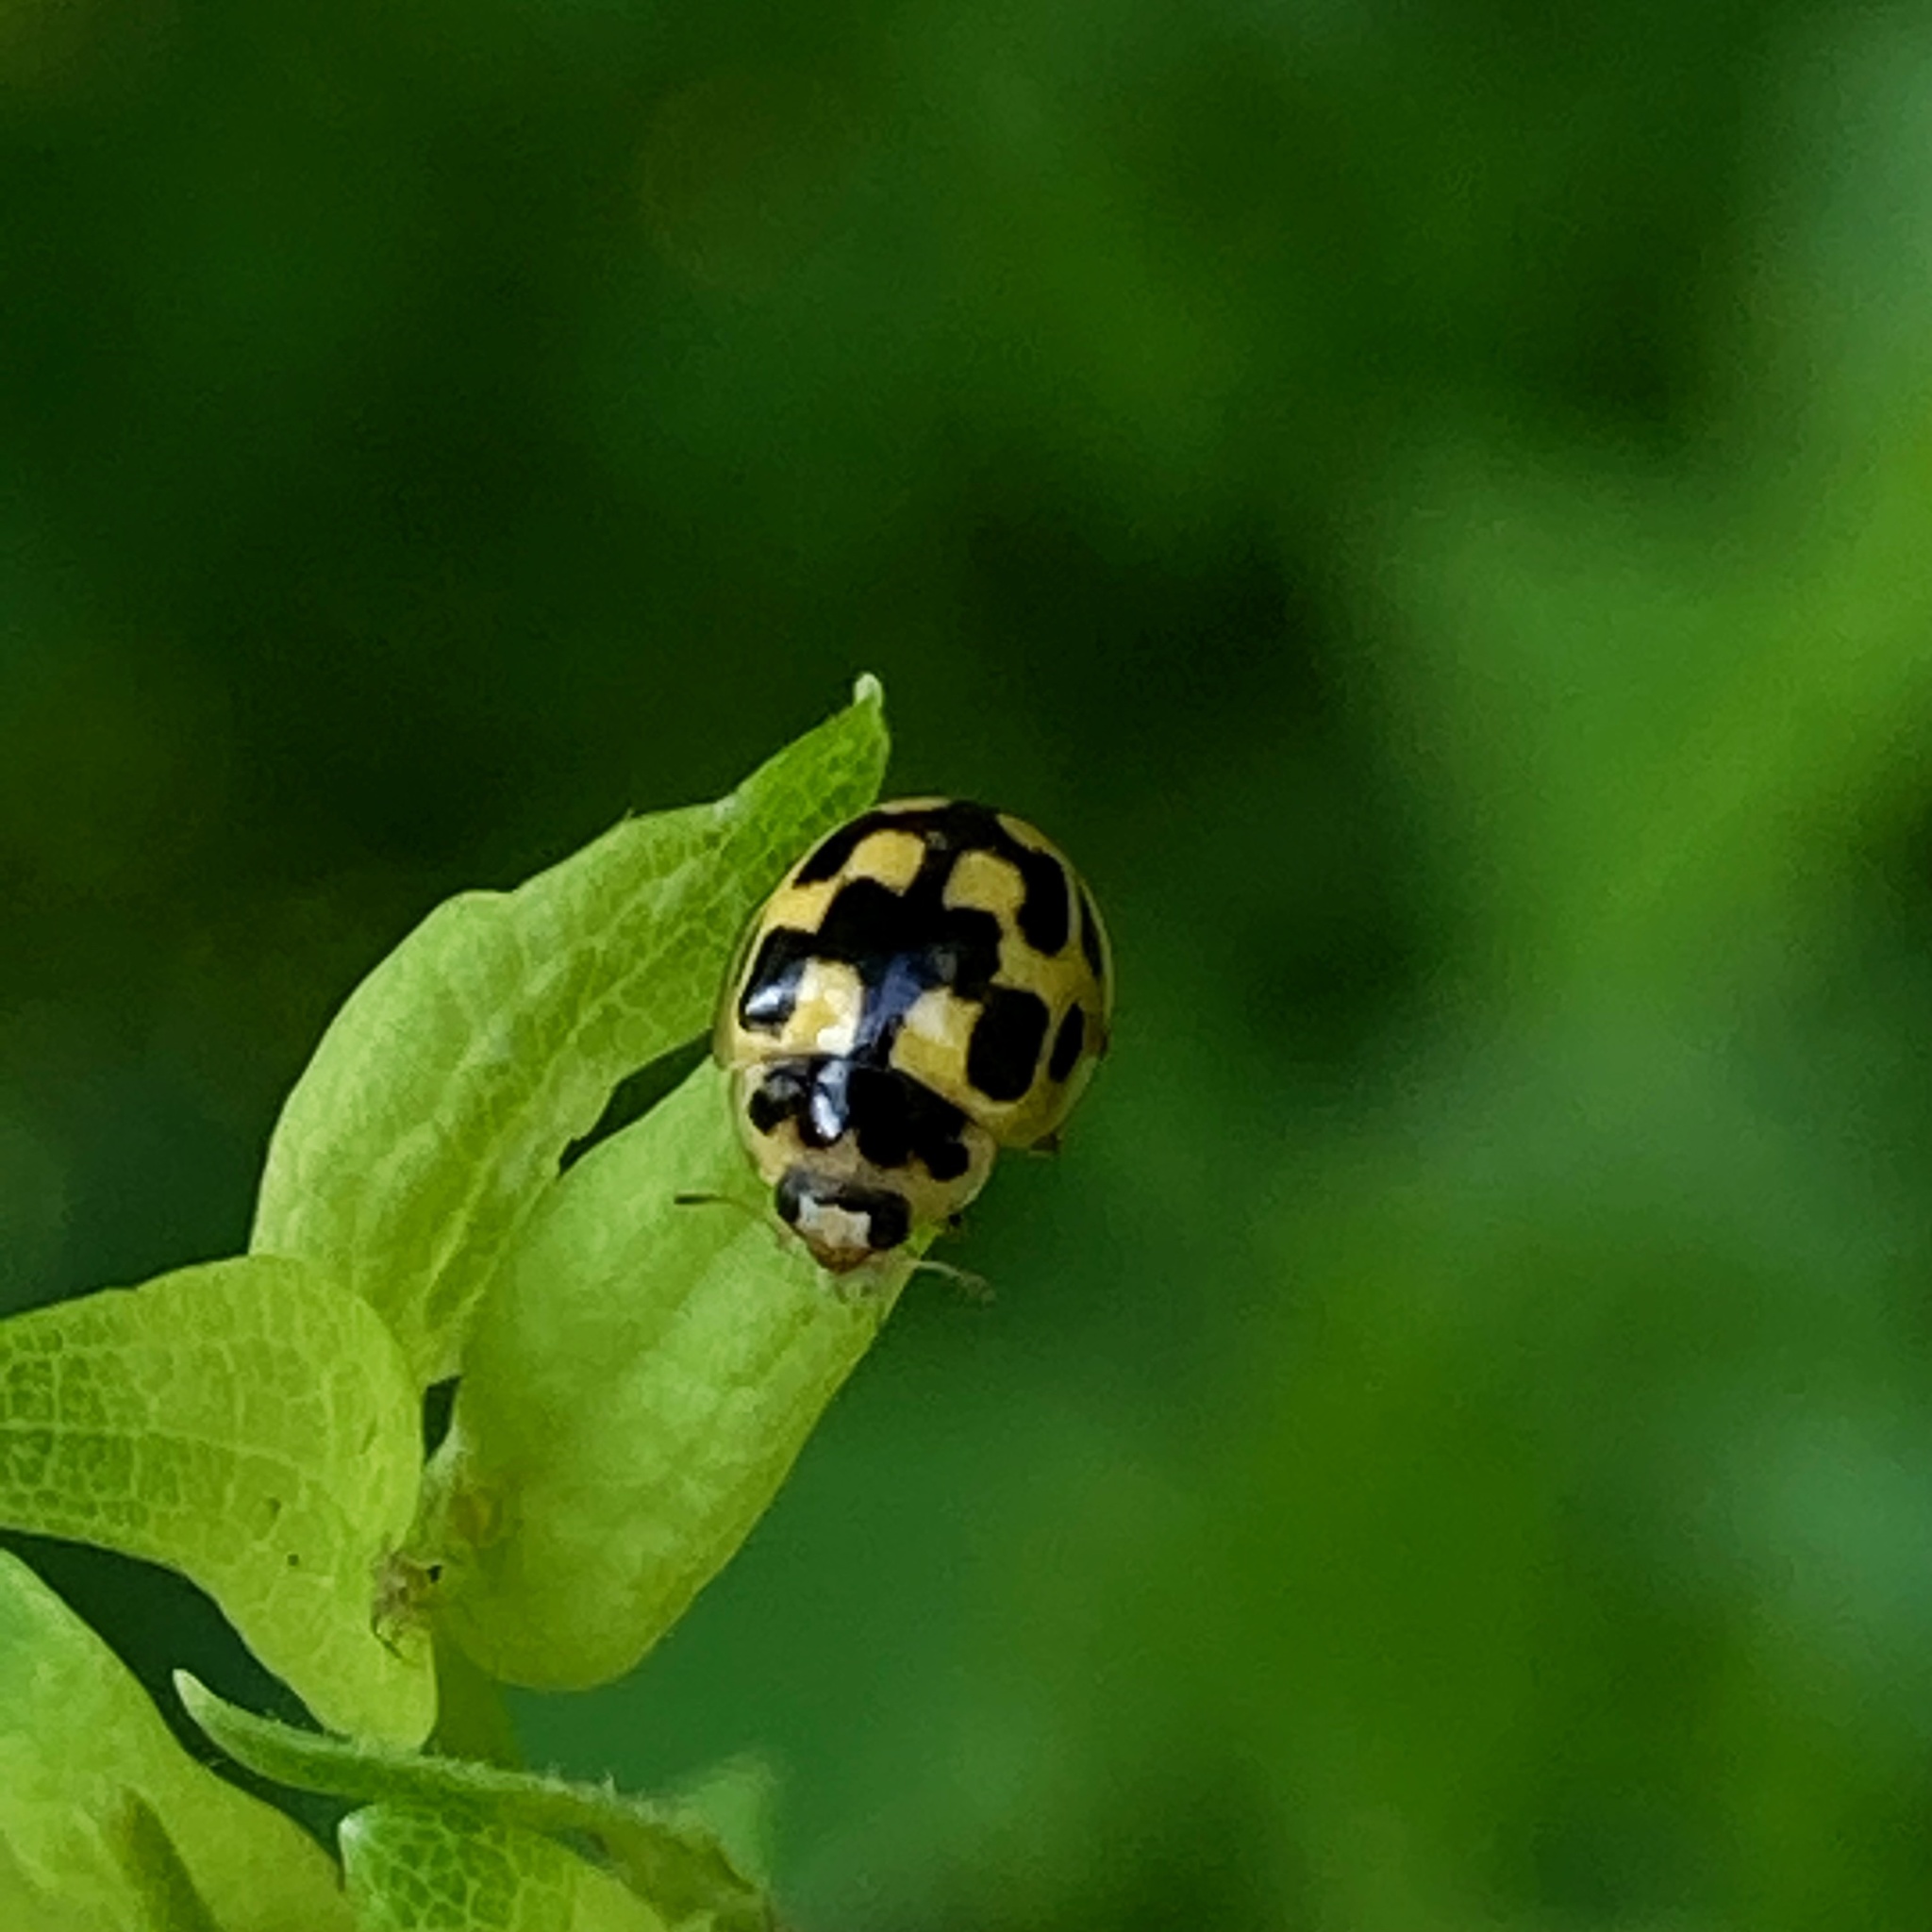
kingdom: Animalia
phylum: Arthropoda
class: Insecta
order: Coleoptera
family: Coccinellidae
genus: Propylaea
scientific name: Propylaea quatuordecimpunctata
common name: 14-spotted ladybird beetle
